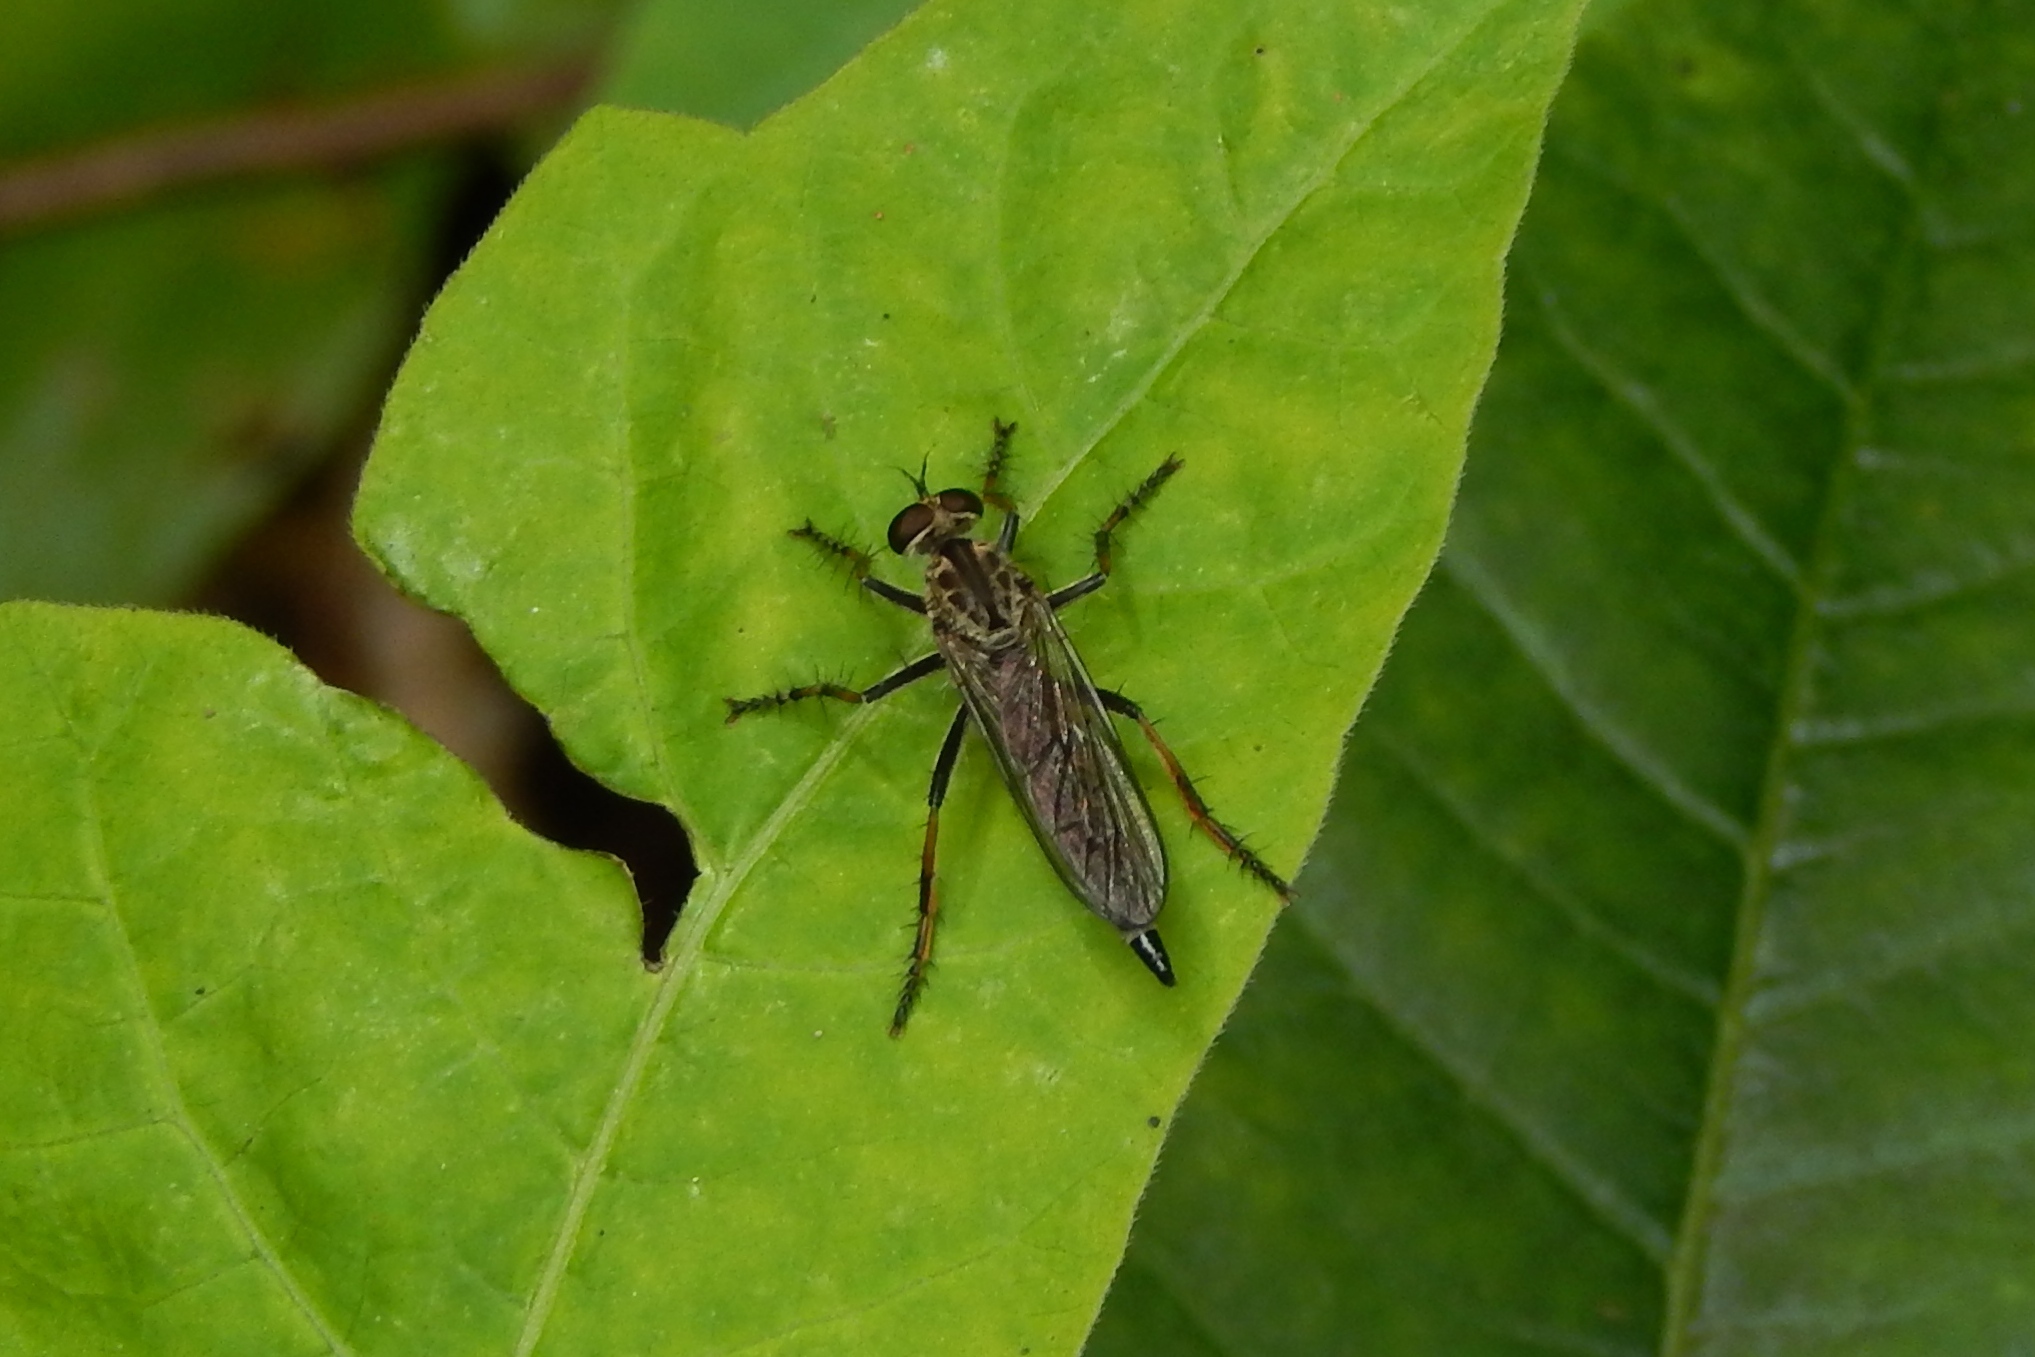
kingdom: Animalia
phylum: Arthropoda
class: Insecta
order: Diptera
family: Asilidae
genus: Philonicus
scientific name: Philonicus
